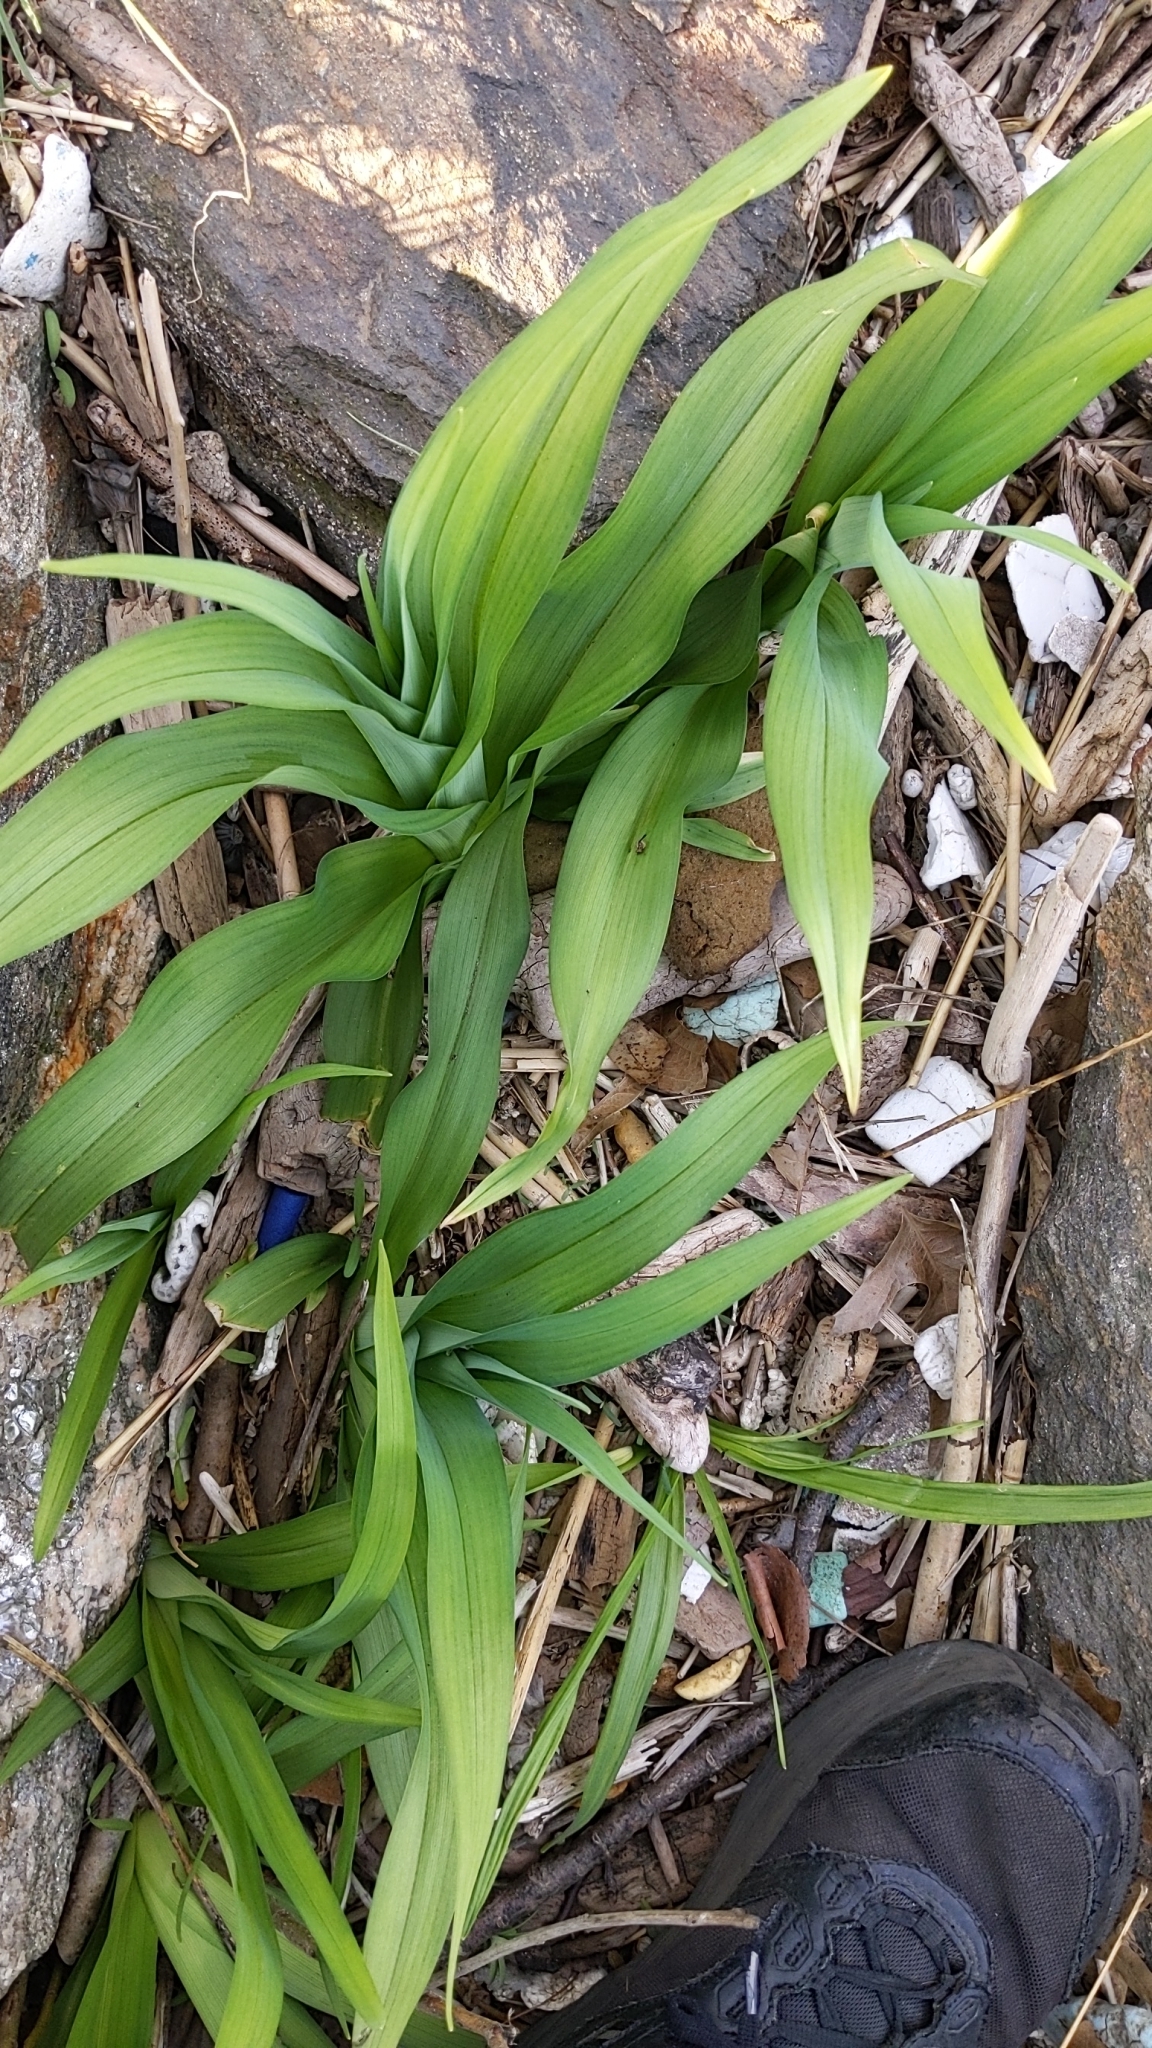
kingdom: Plantae
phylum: Tracheophyta
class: Liliopsida
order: Asparagales
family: Asphodelaceae
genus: Hemerocallis
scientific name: Hemerocallis fulva
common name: Orange day-lily
